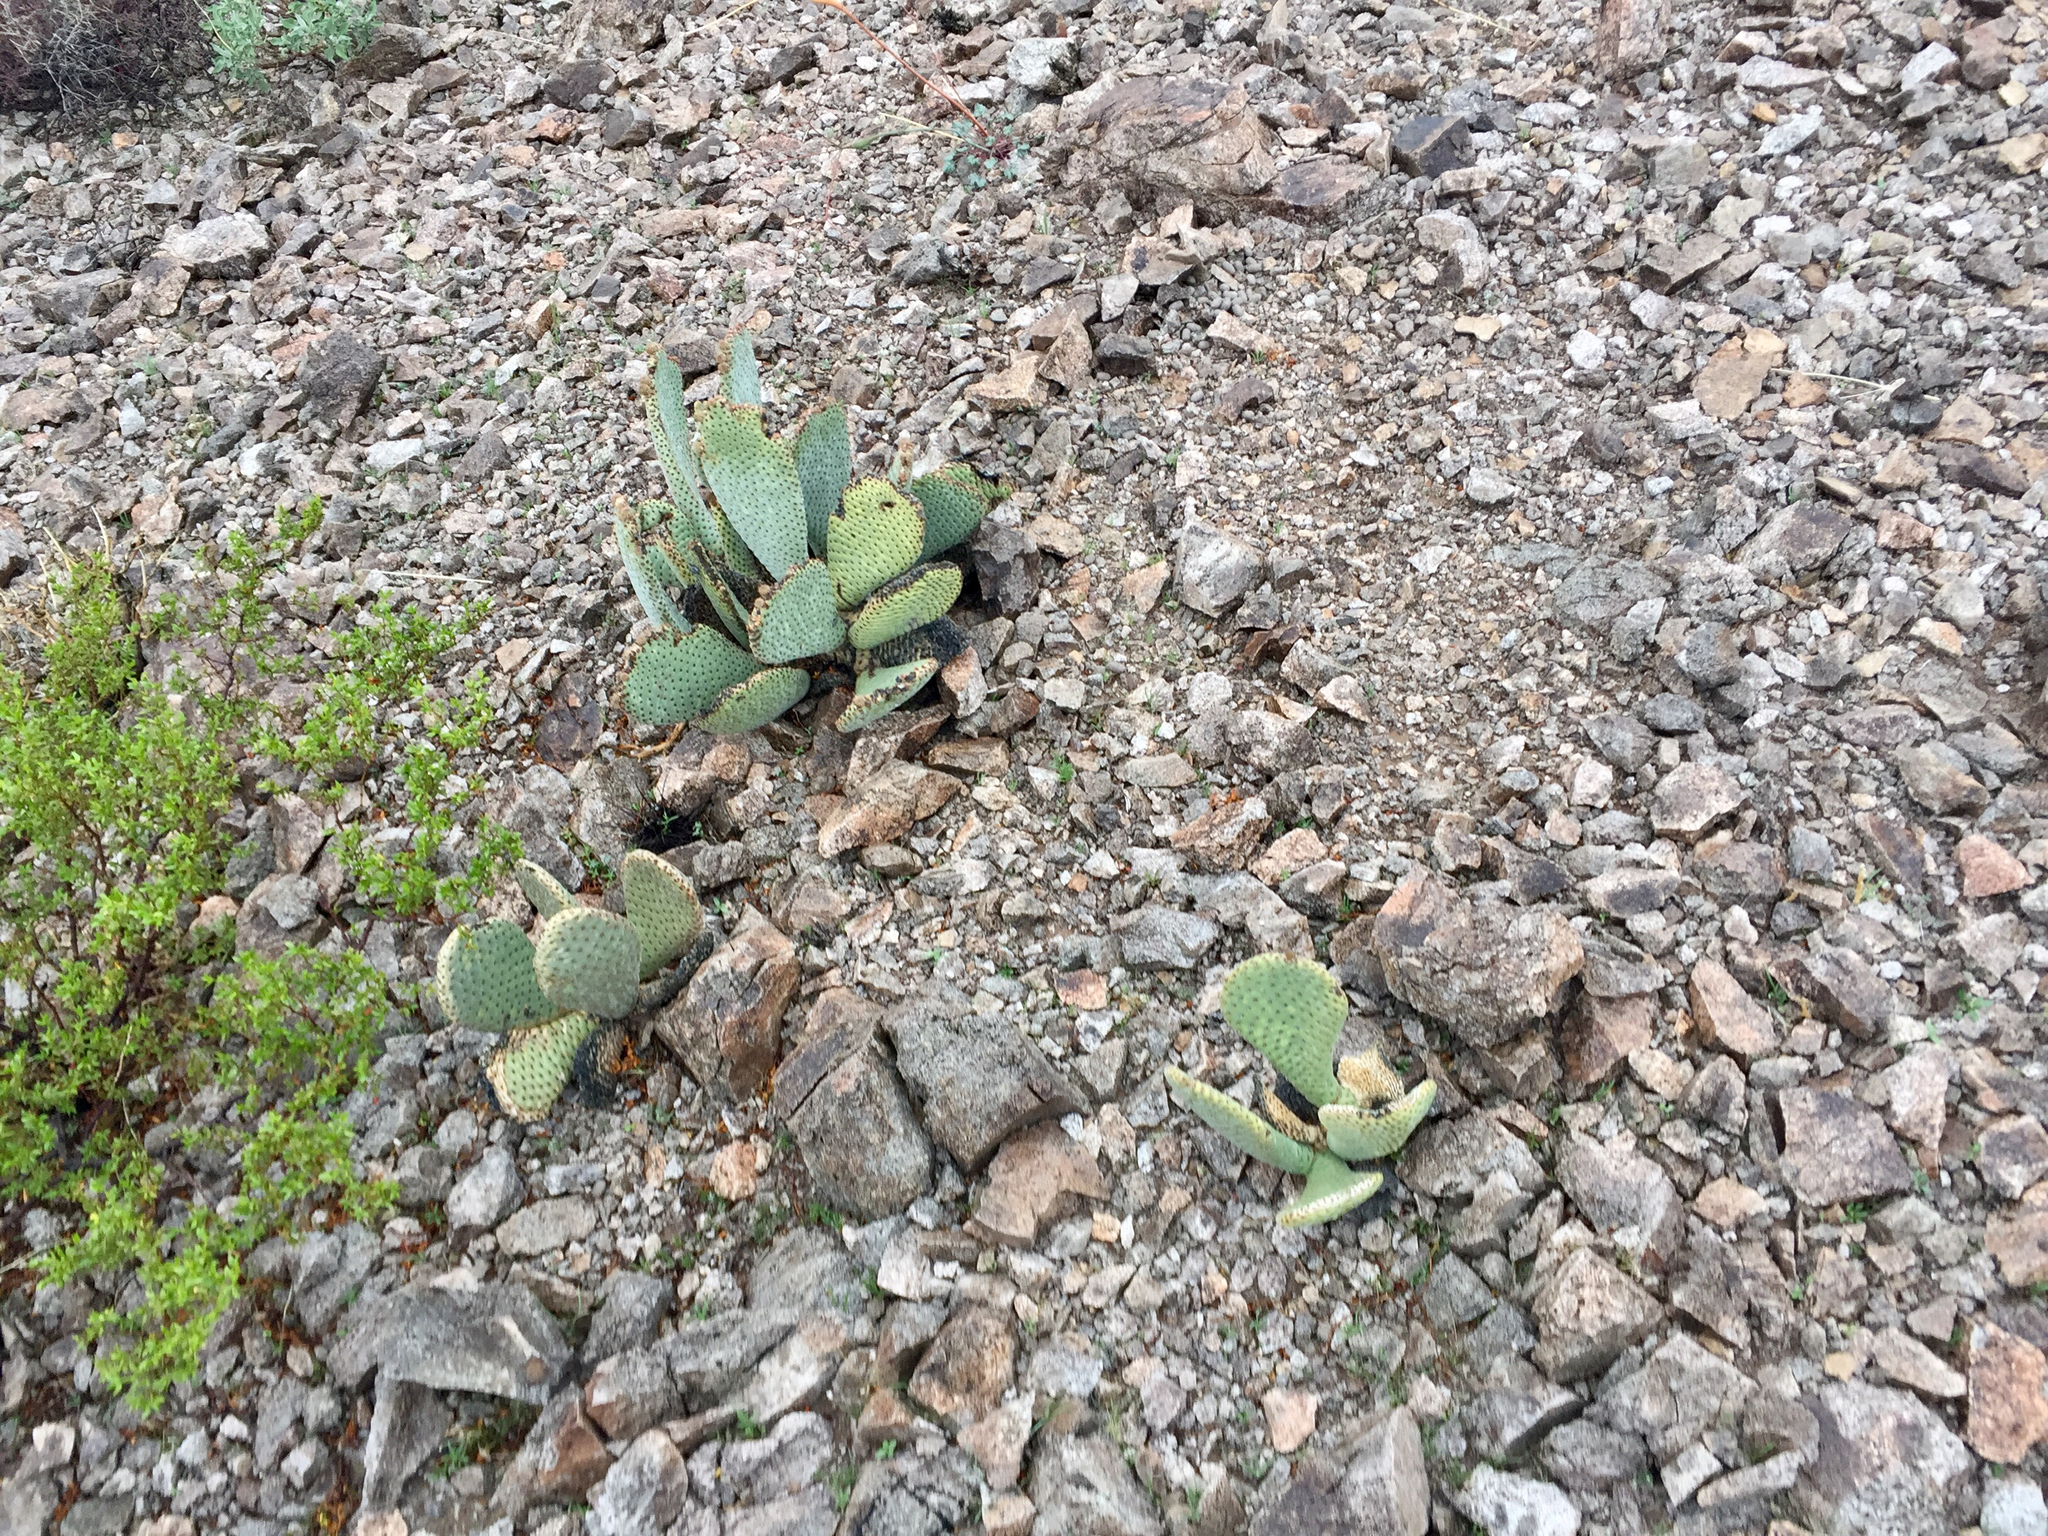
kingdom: Plantae
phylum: Tracheophyta
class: Magnoliopsida
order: Caryophyllales
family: Cactaceae
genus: Opuntia
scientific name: Opuntia basilaris
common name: Beavertail prickly-pear
